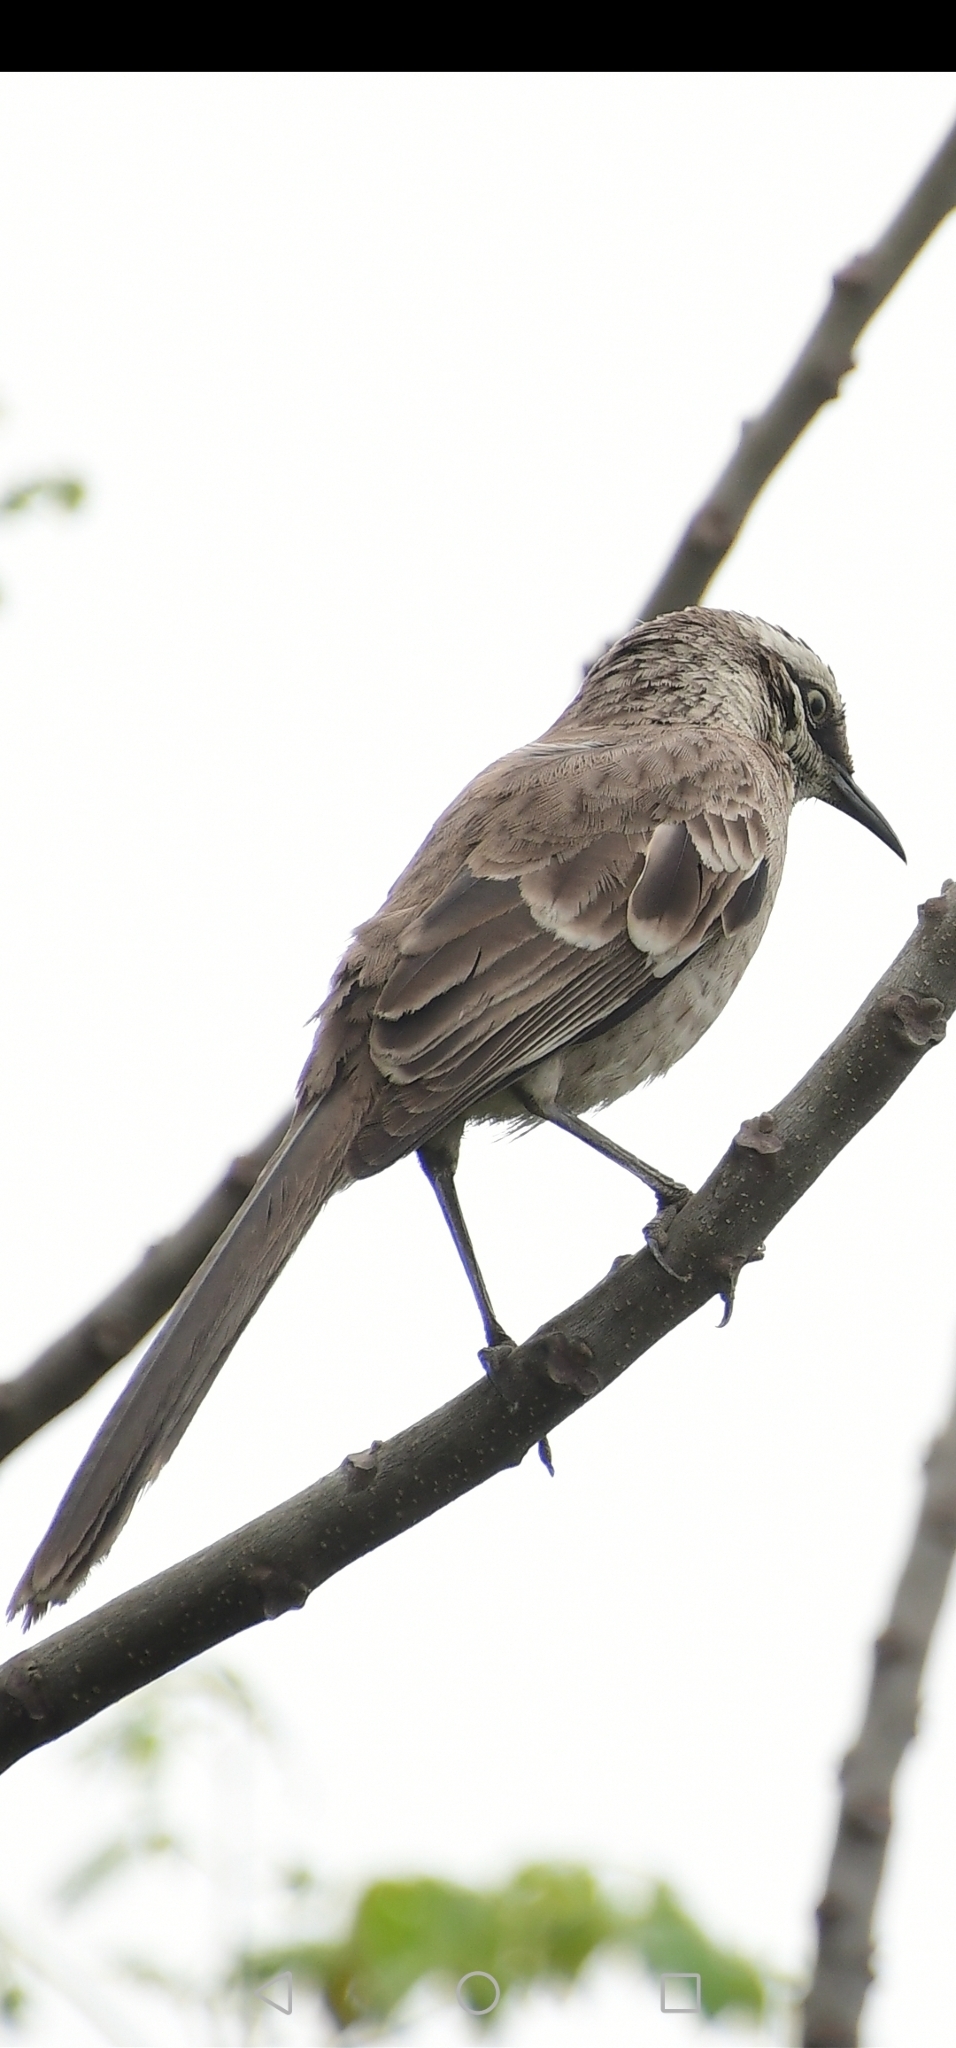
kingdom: Animalia
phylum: Chordata
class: Aves
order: Passeriformes
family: Mimidae
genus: Mimus
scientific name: Mimus longicaudatus
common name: Long-tailed mockingbird
